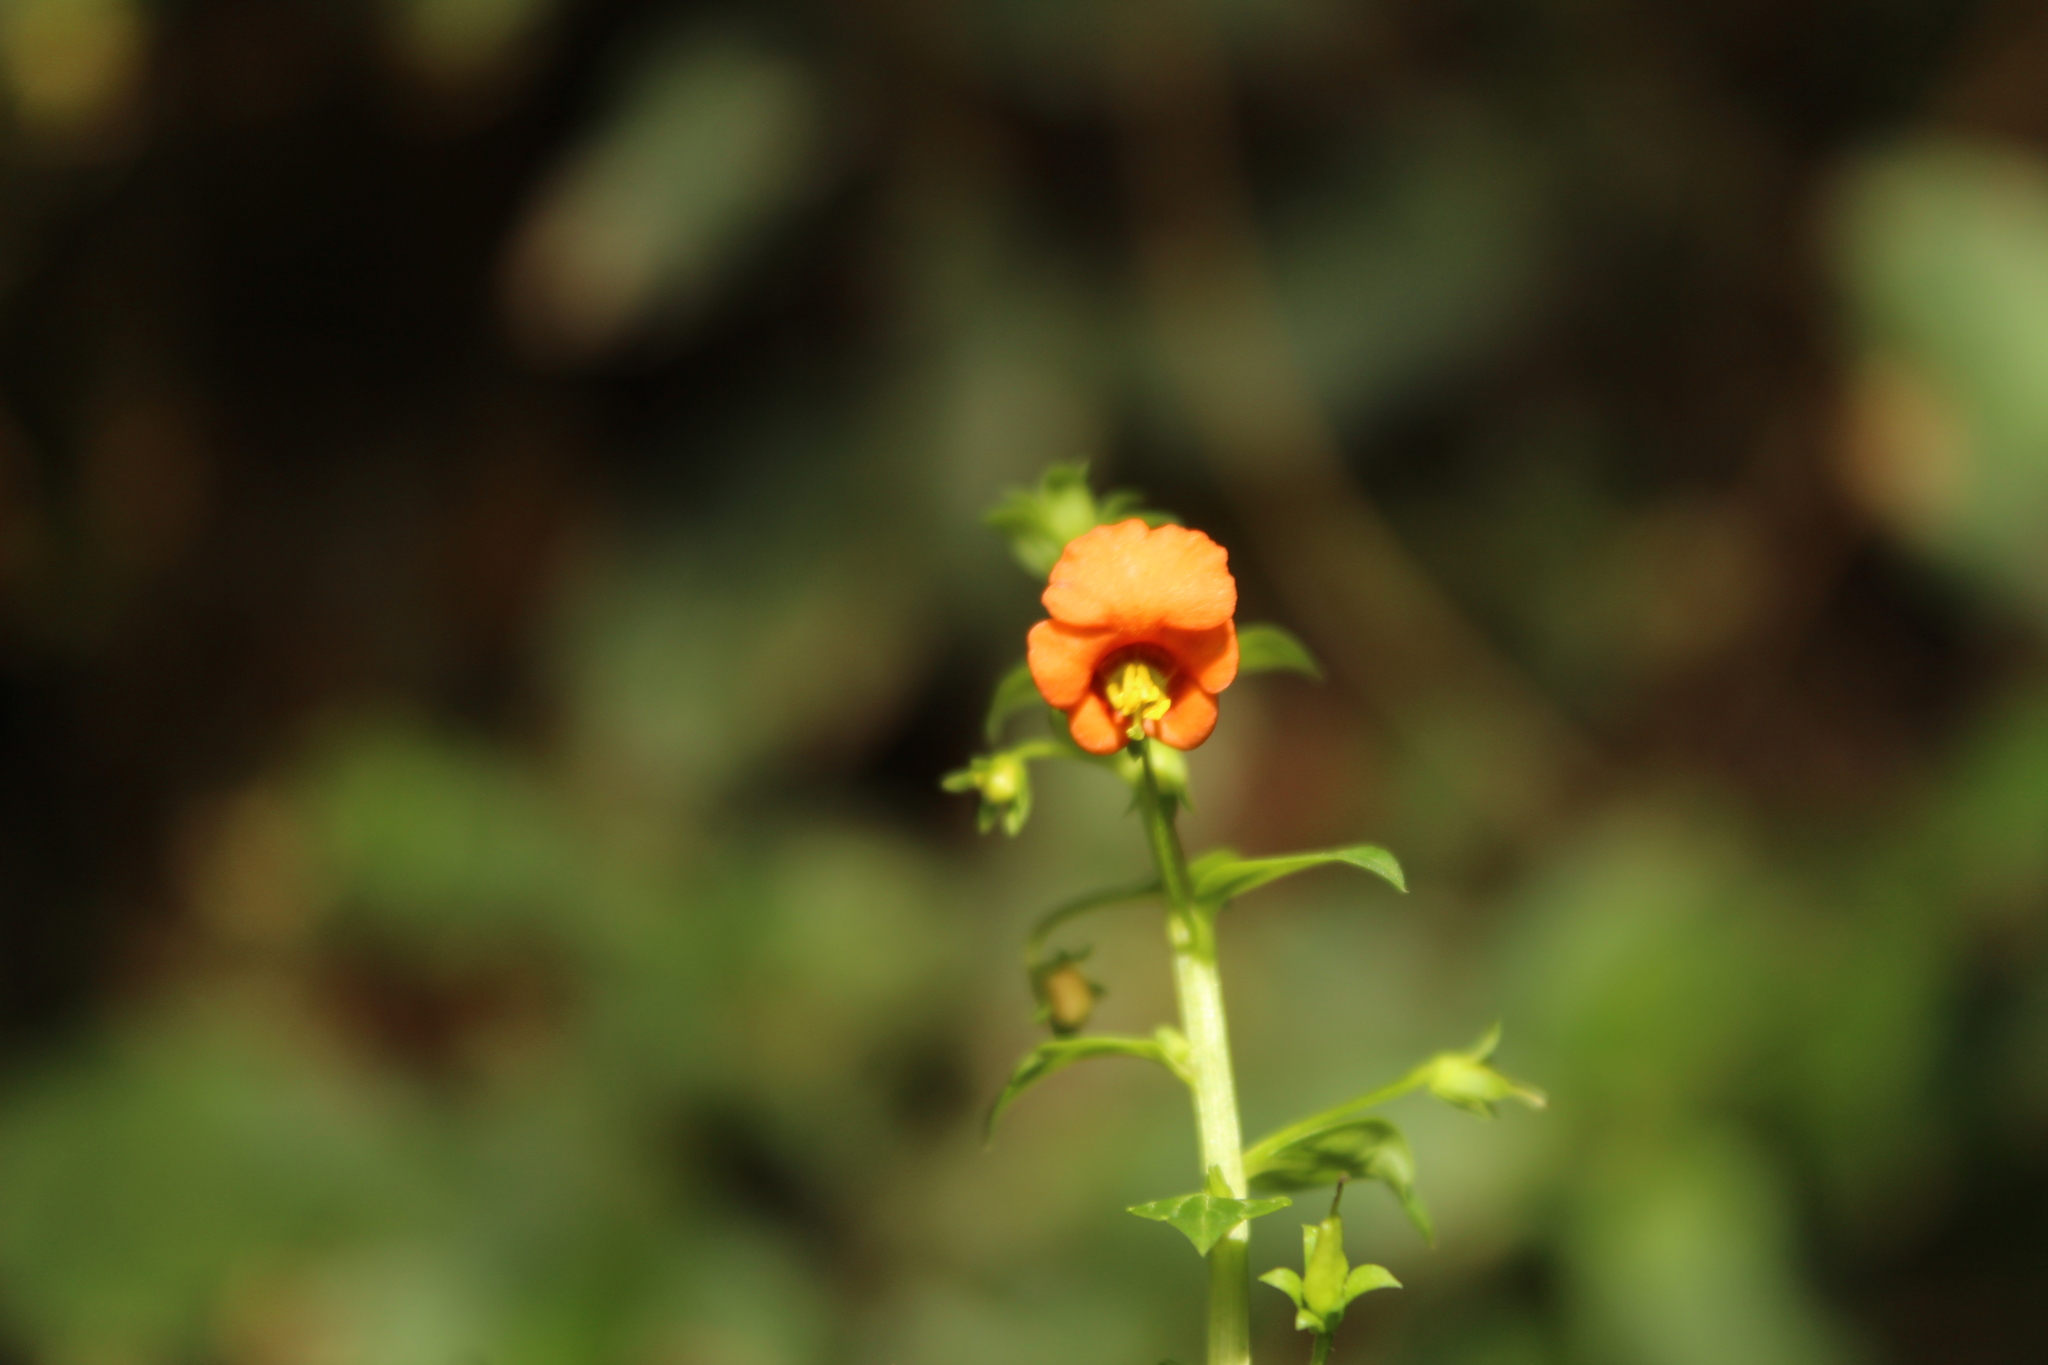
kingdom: Plantae
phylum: Tracheophyta
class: Magnoliopsida
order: Lamiales
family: Scrophulariaceae
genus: Alonsoa
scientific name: Alonsoa meridionalis
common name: Maskflower
